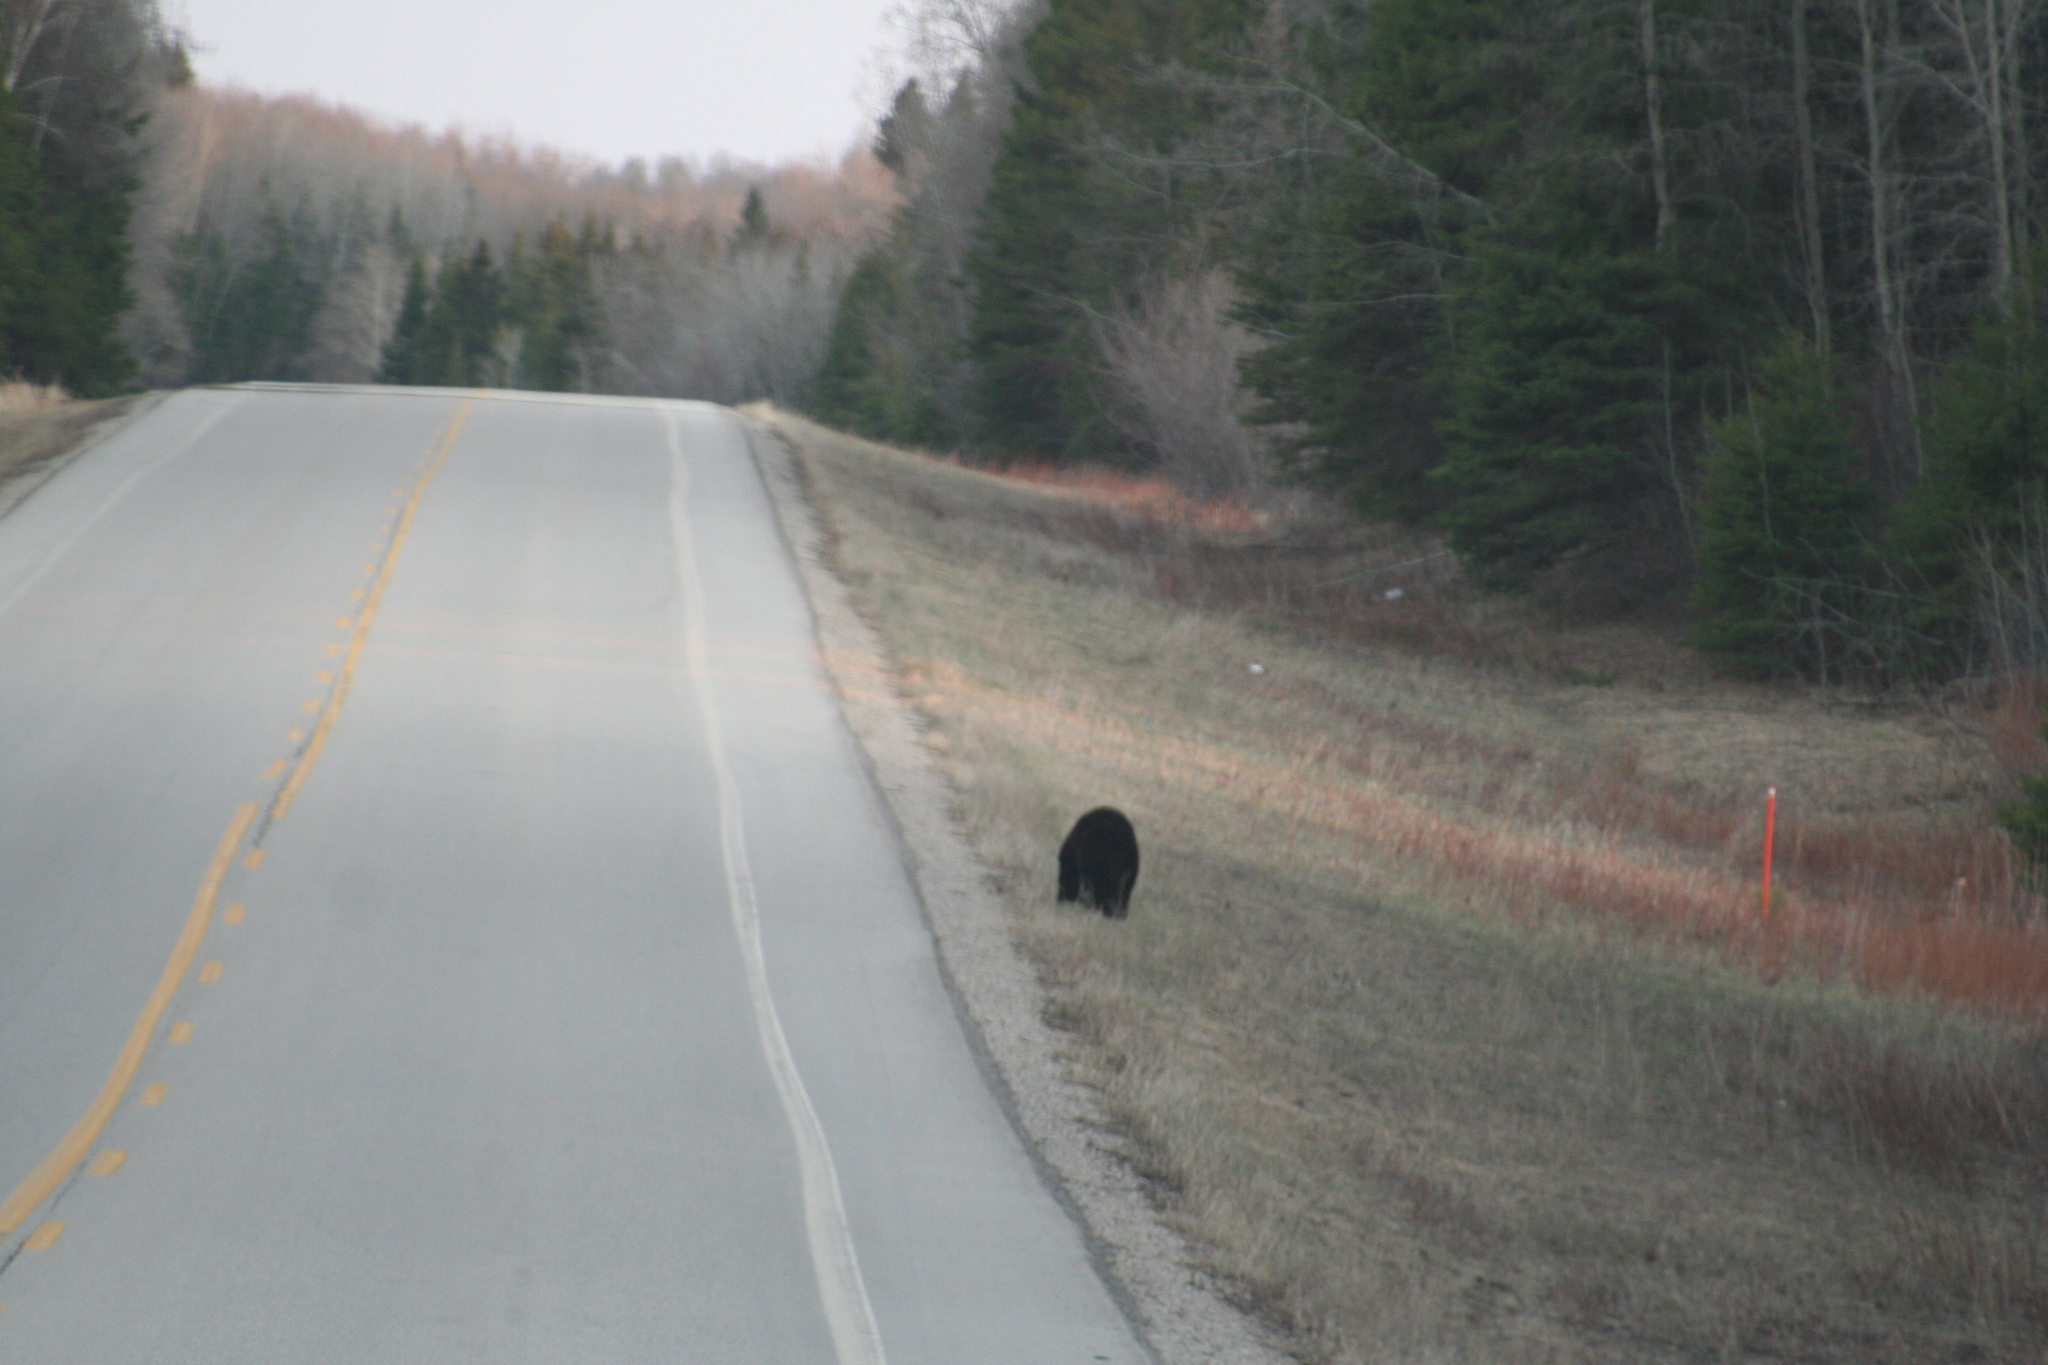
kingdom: Animalia
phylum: Chordata
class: Mammalia
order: Carnivora
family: Ursidae
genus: Ursus
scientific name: Ursus americanus
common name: American black bear
